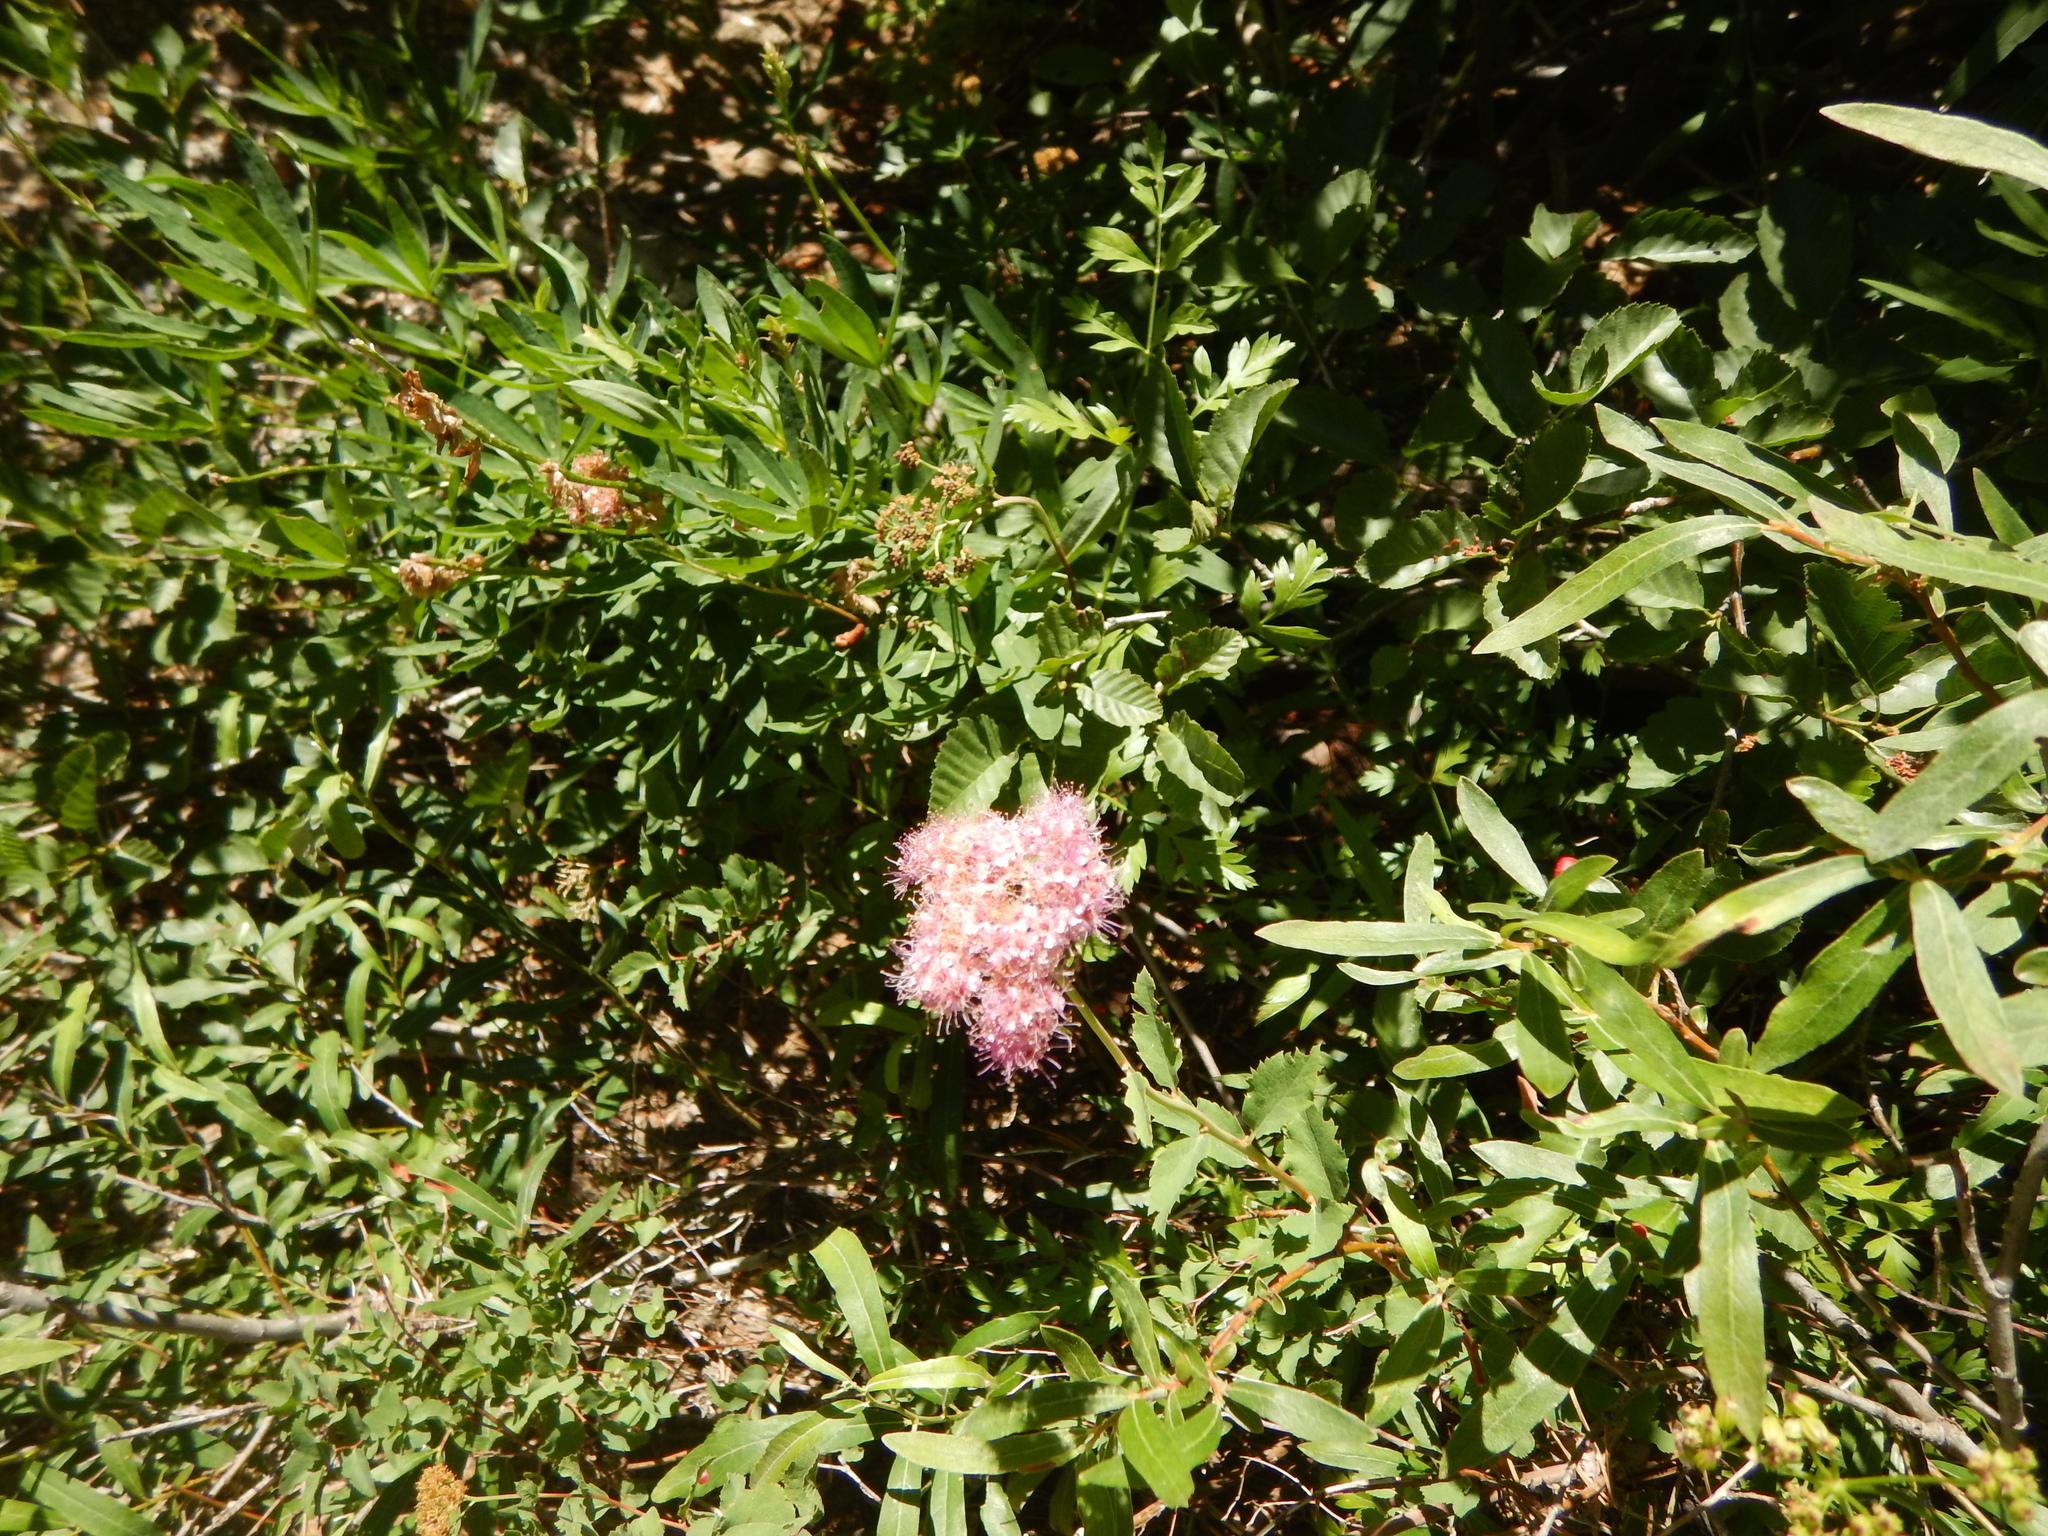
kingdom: Plantae
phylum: Tracheophyta
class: Magnoliopsida
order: Rosales
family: Rosaceae
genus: Spiraea
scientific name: Spiraea splendens
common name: Subalpine meadowsweet
